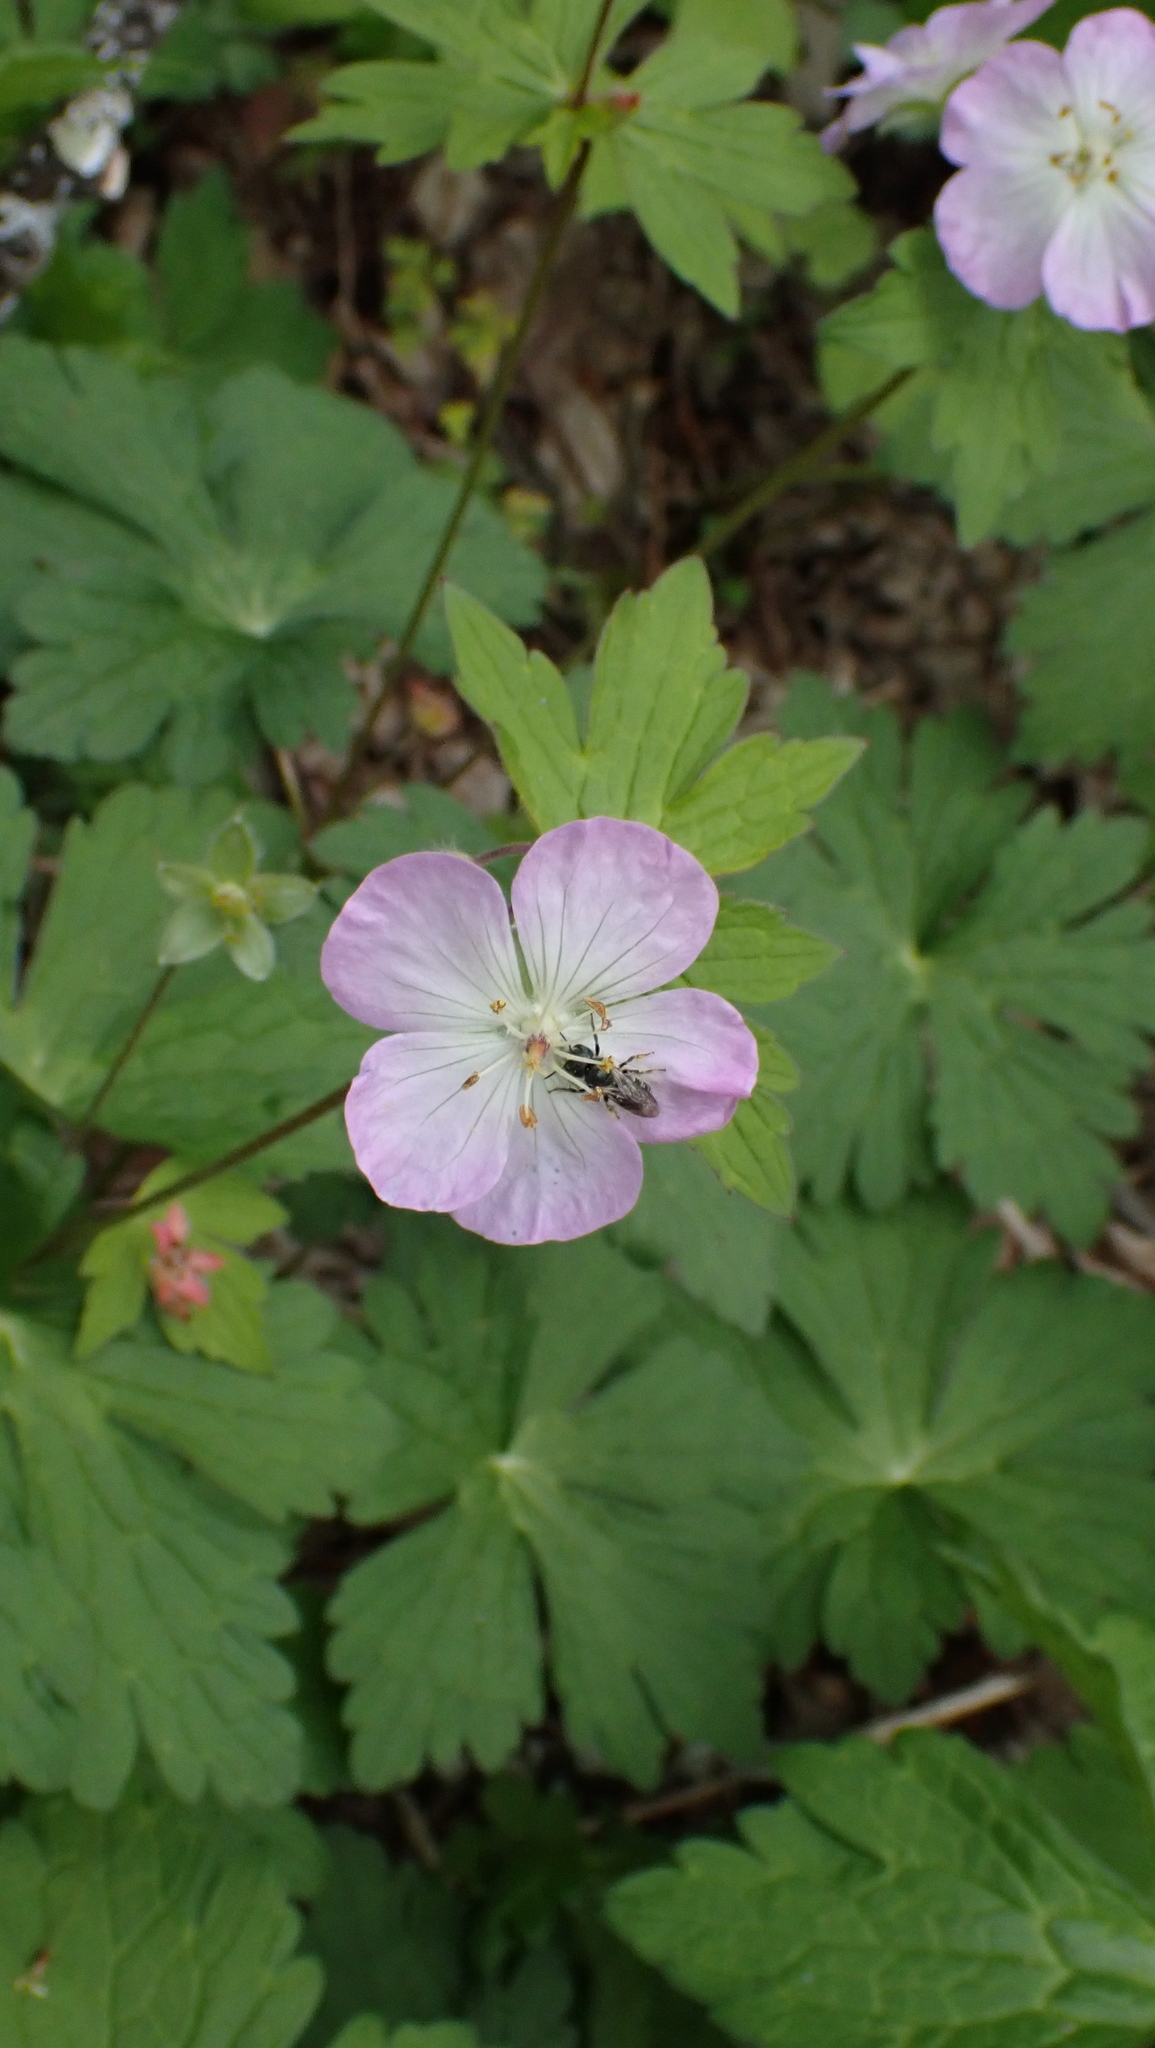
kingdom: Plantae
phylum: Tracheophyta
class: Magnoliopsida
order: Geraniales
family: Geraniaceae
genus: Geranium
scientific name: Geranium maculatum
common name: Spotted geranium
